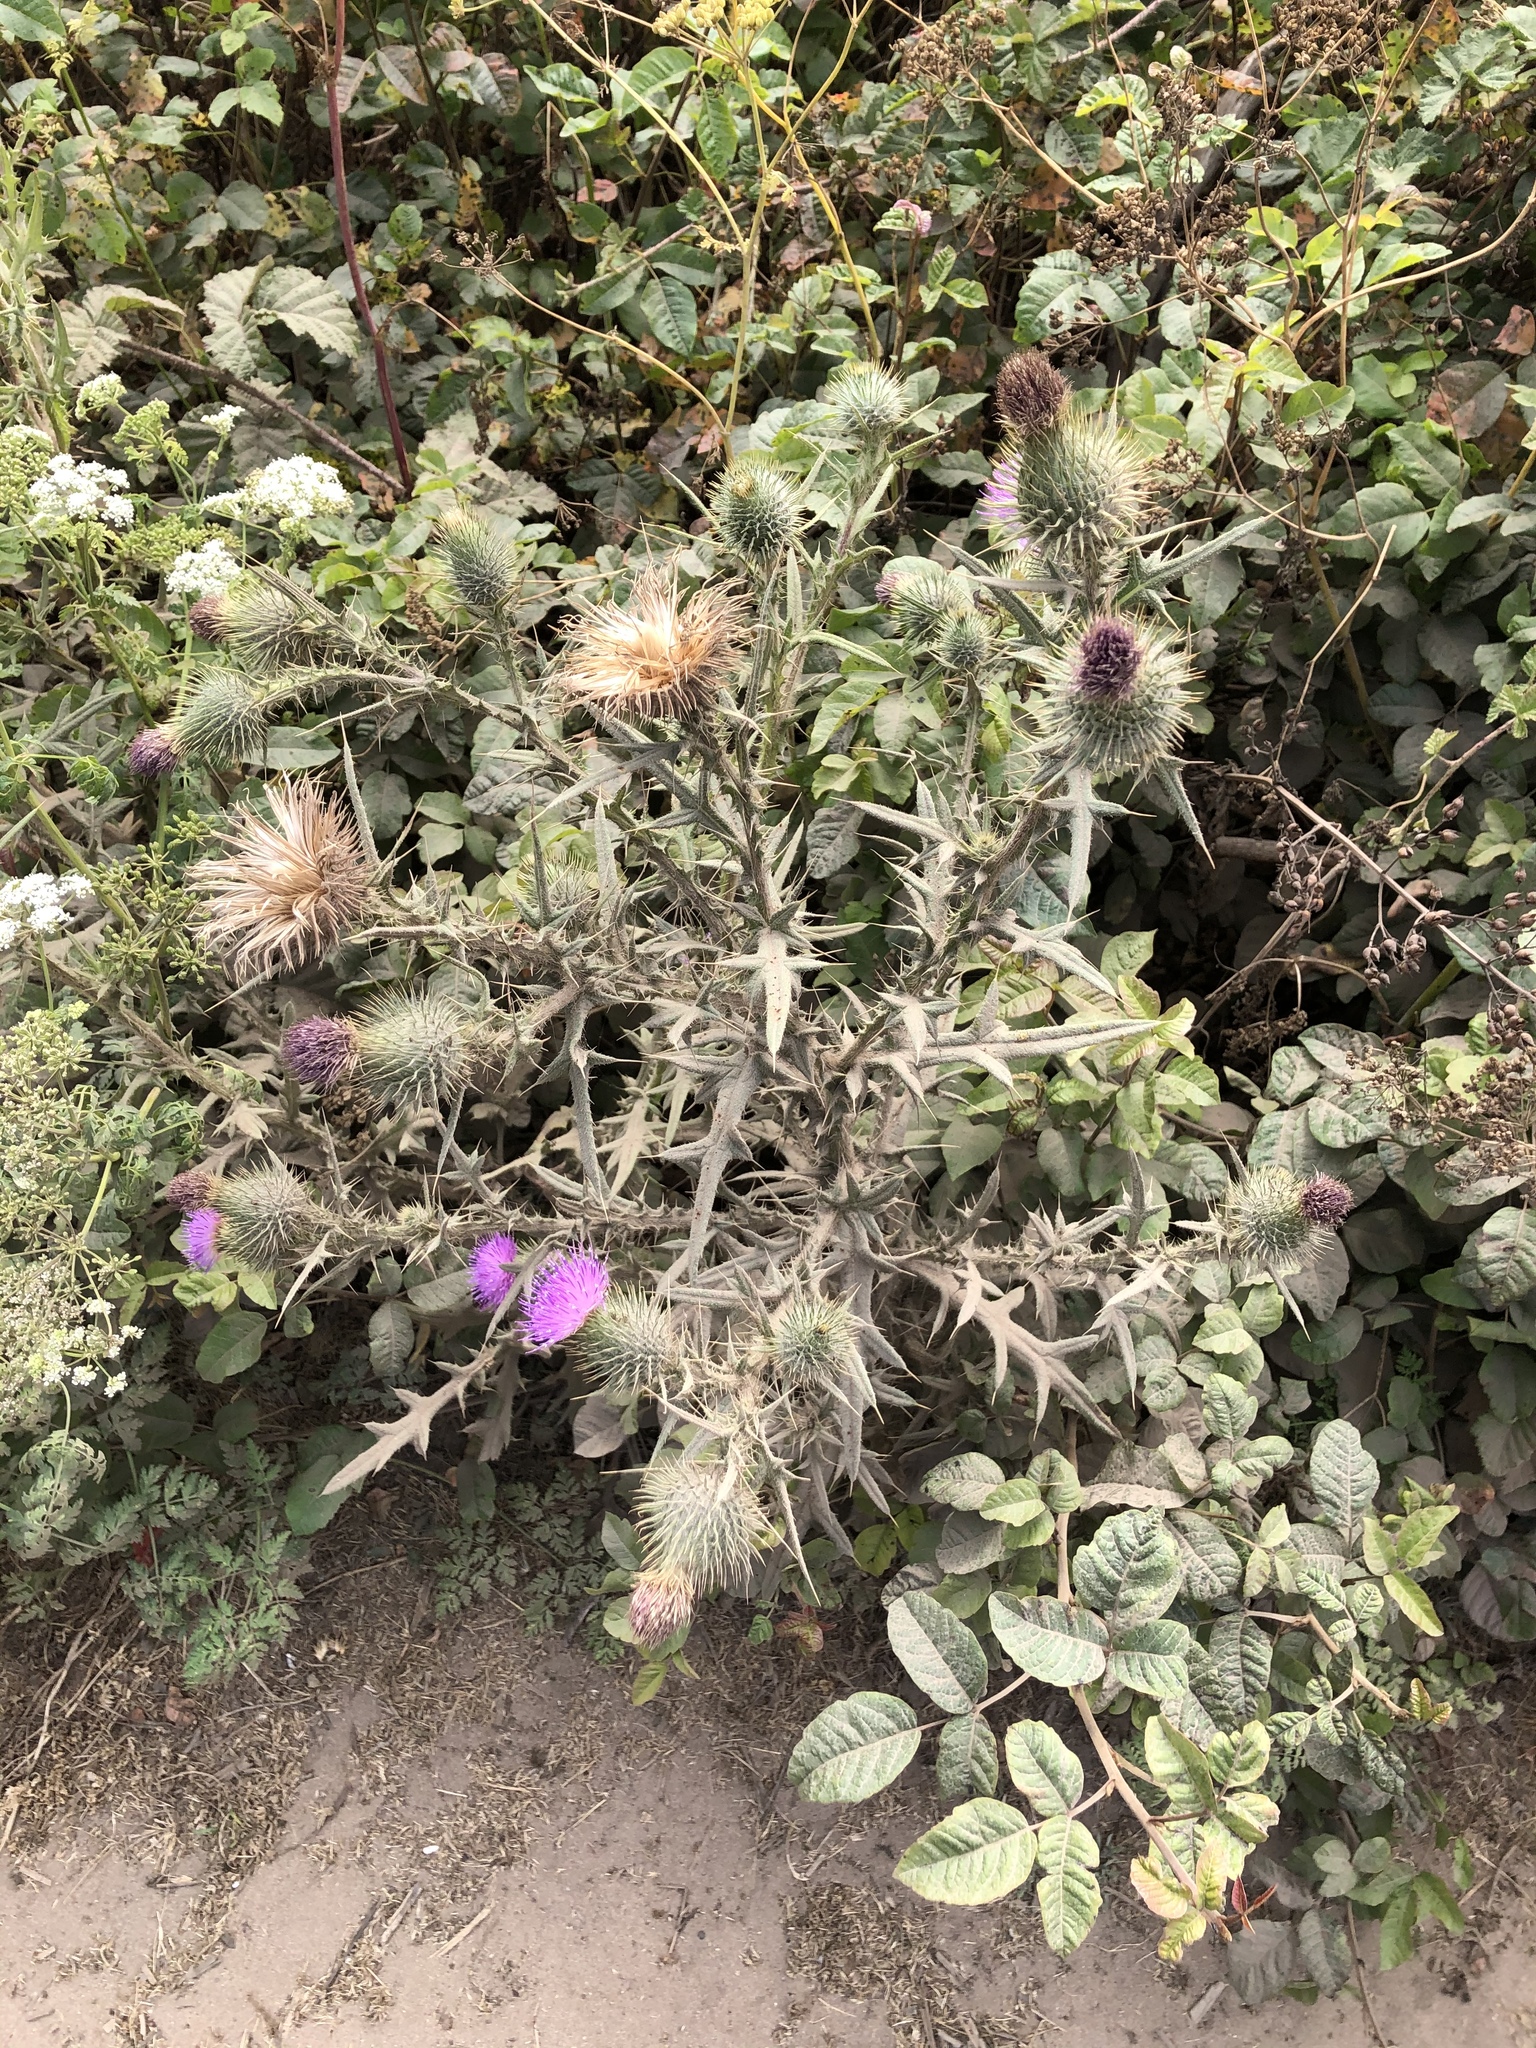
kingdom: Plantae
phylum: Tracheophyta
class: Magnoliopsida
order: Asterales
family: Asteraceae
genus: Cirsium
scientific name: Cirsium vulgare
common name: Bull thistle
